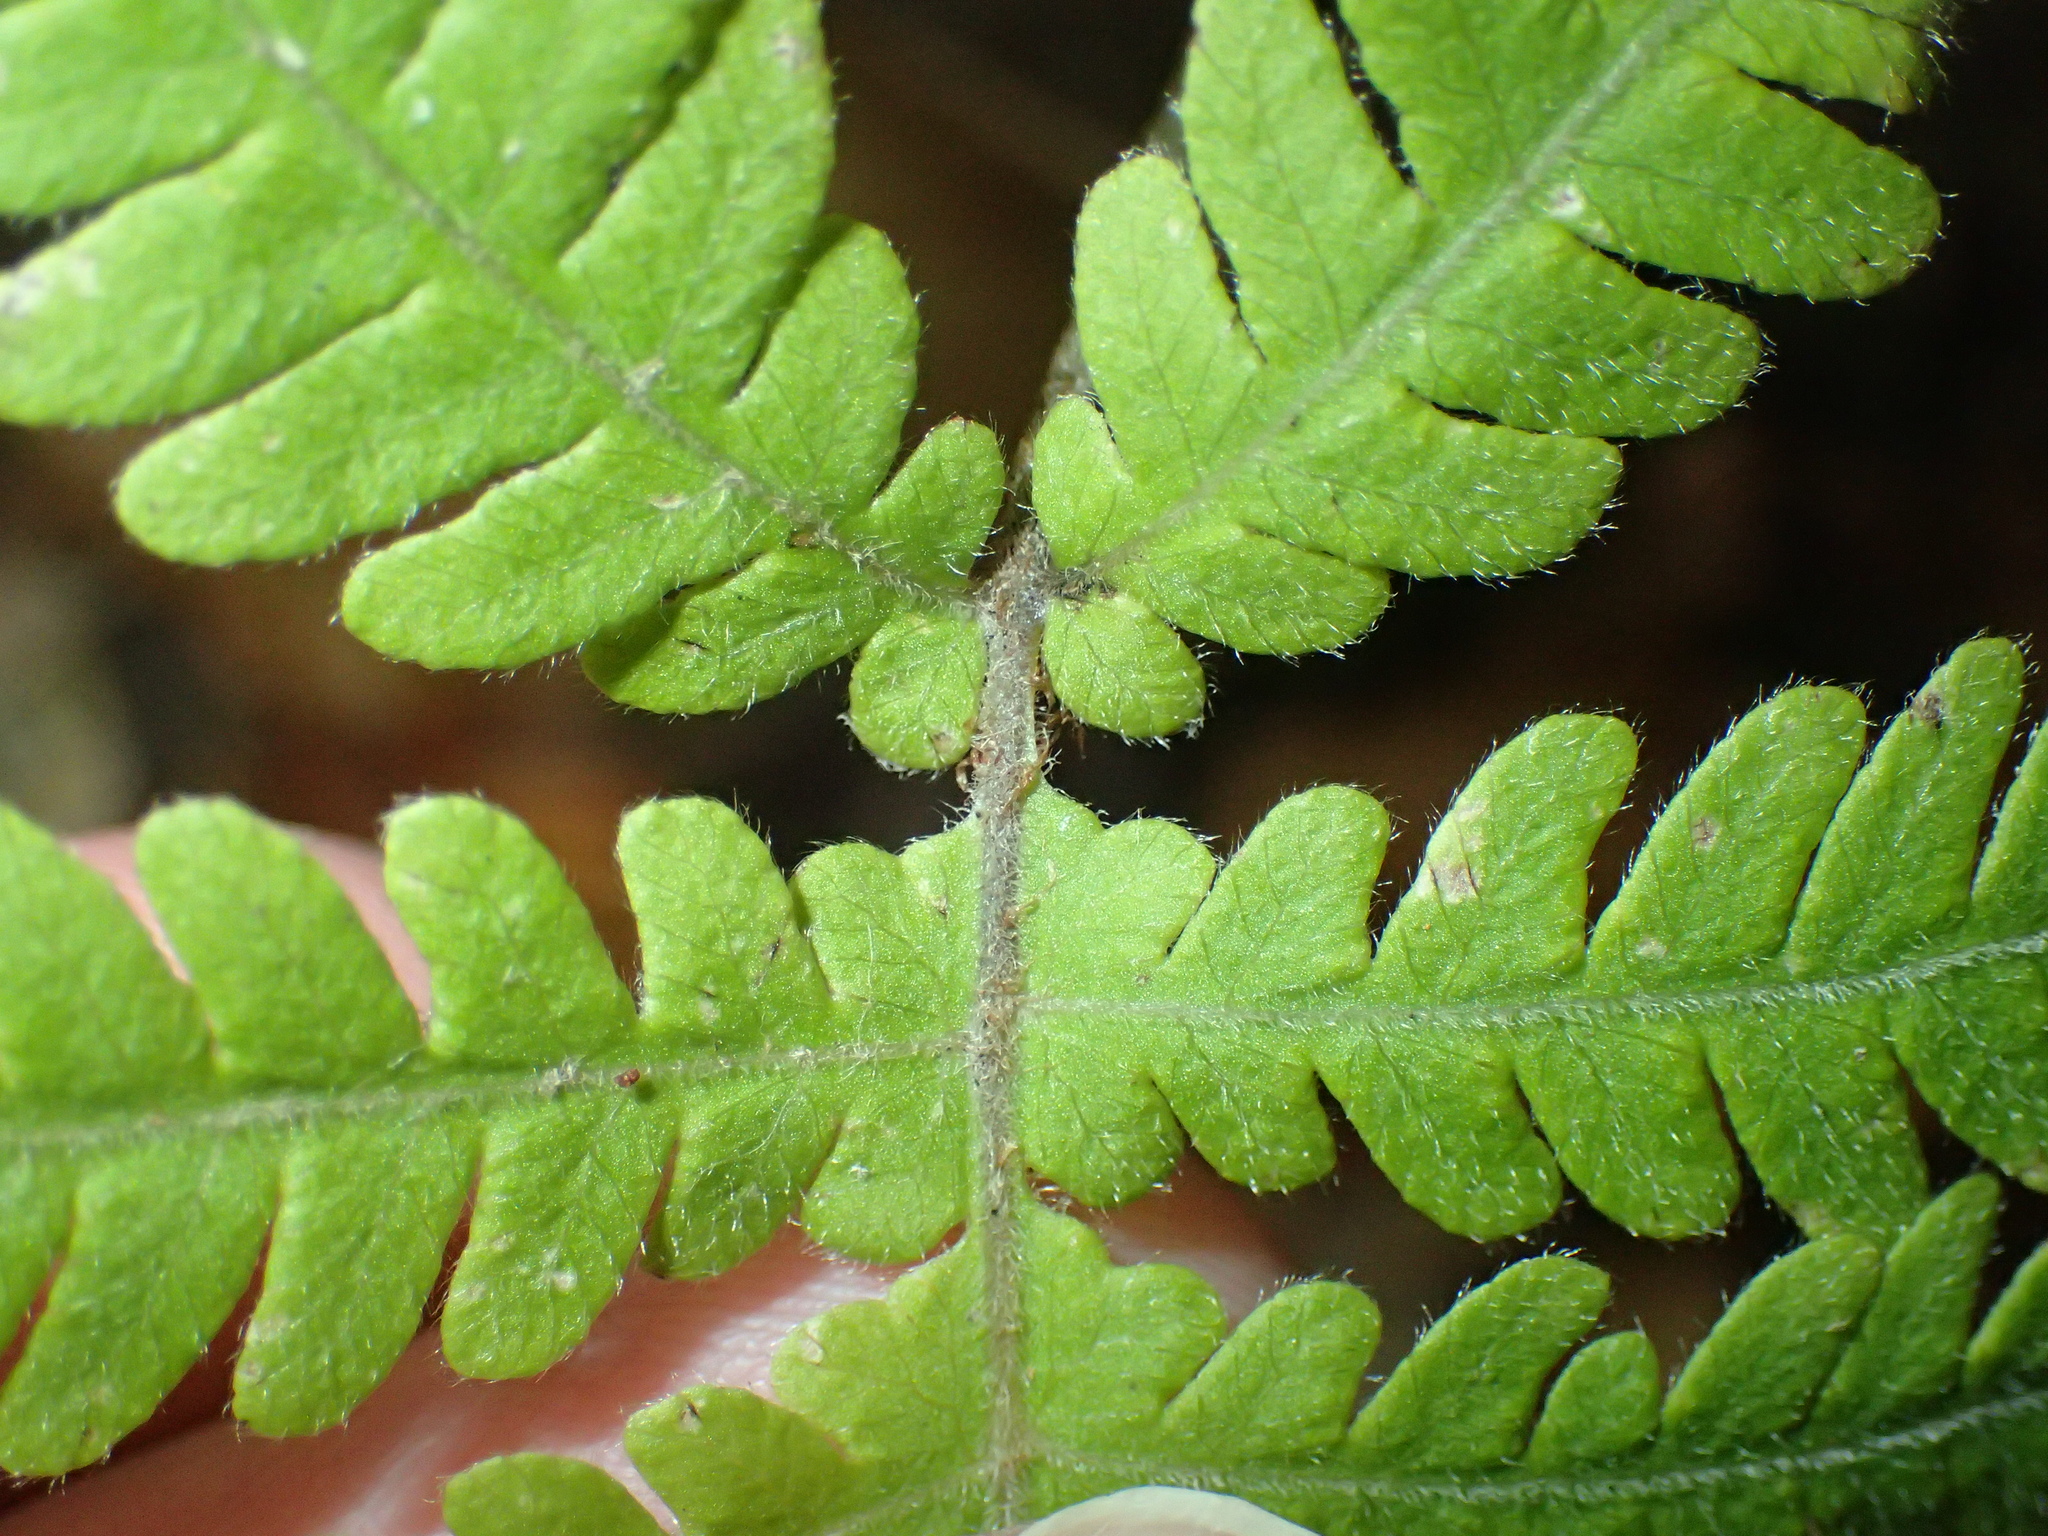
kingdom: Plantae
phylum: Tracheophyta
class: Polypodiopsida
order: Polypodiales
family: Thelypteridaceae
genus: Phegopteris
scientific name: Phegopteris connectilis
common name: Beech fern
